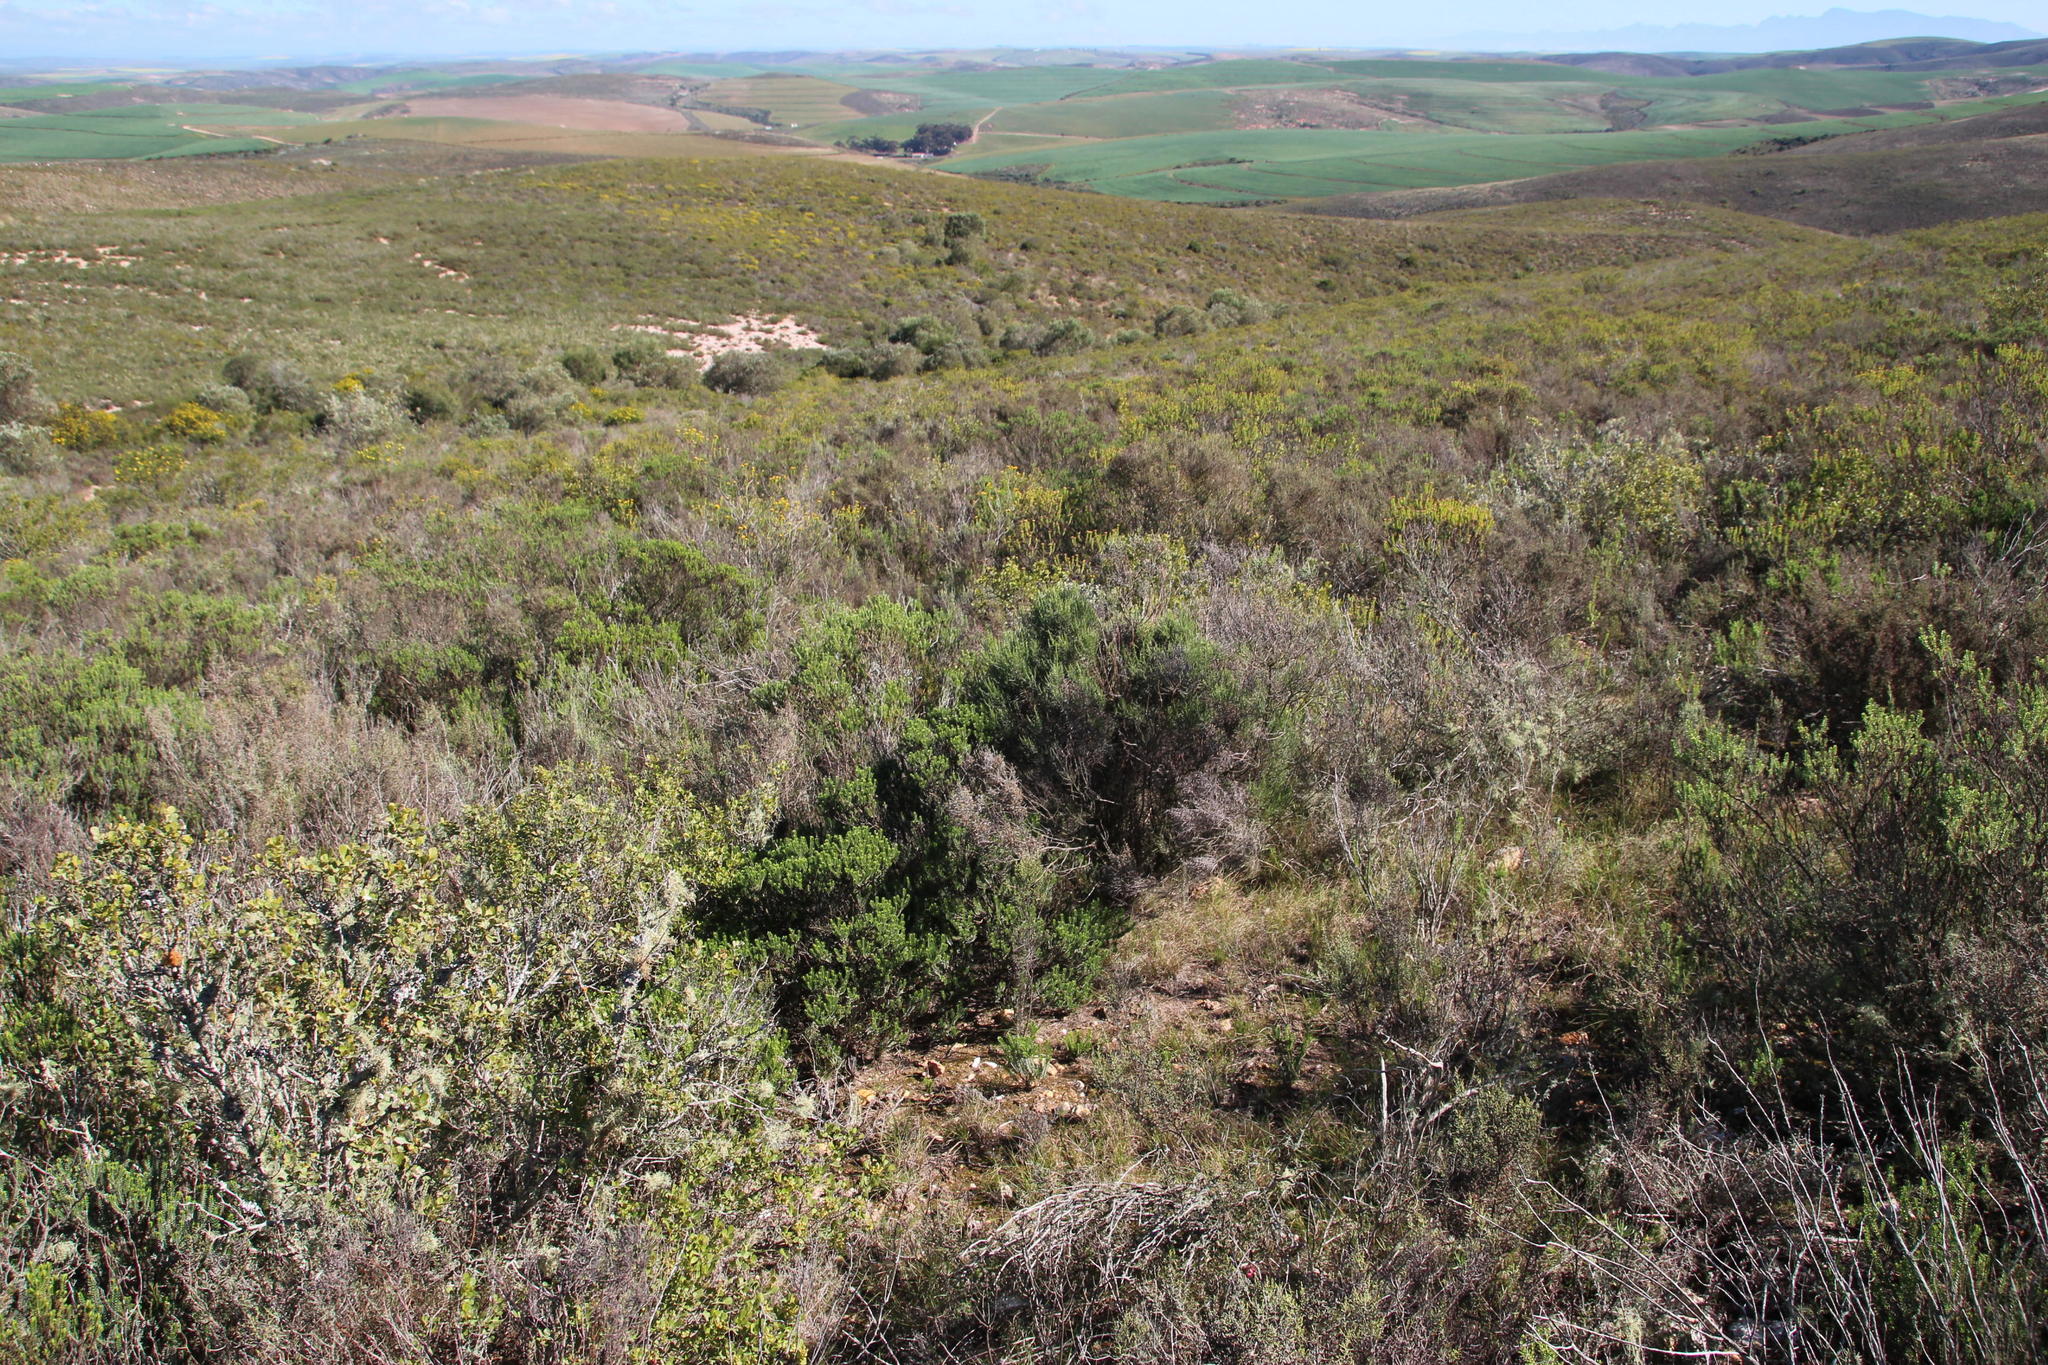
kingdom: Plantae
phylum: Tracheophyta
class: Magnoliopsida
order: Asterales
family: Asteraceae
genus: Dicerothamnus
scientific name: Dicerothamnus rhinocerotis
